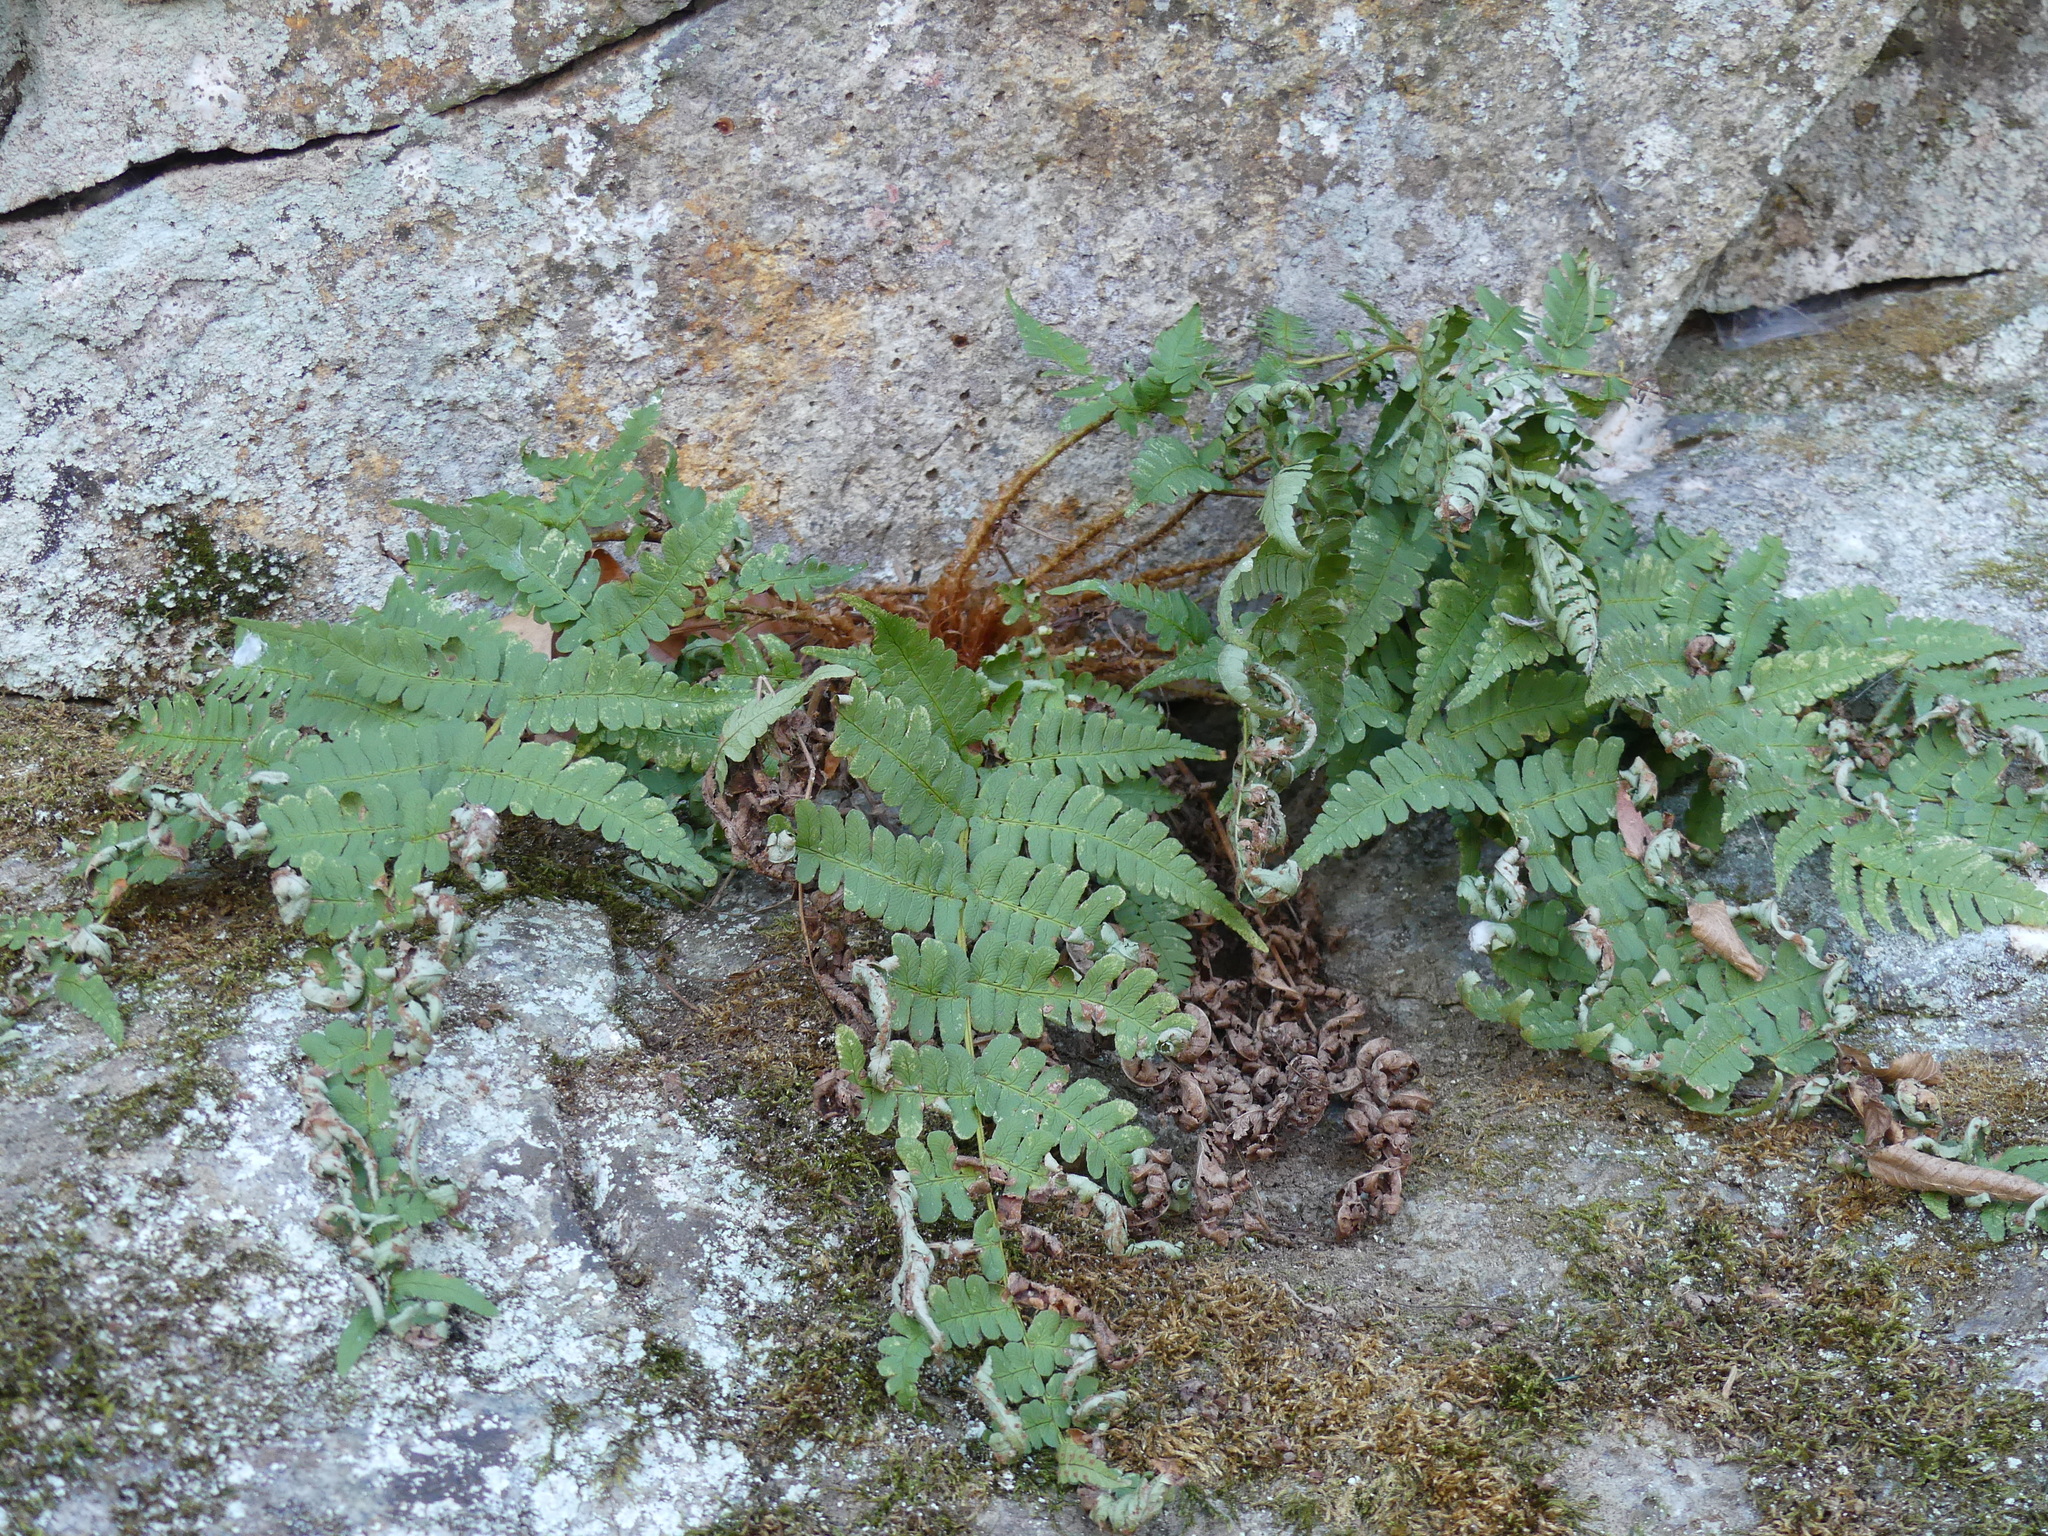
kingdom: Plantae
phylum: Tracheophyta
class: Polypodiopsida
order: Polypodiales
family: Dryopteridaceae
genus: Dryopteris
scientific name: Dryopteris marginalis
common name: Marginal wood fern
